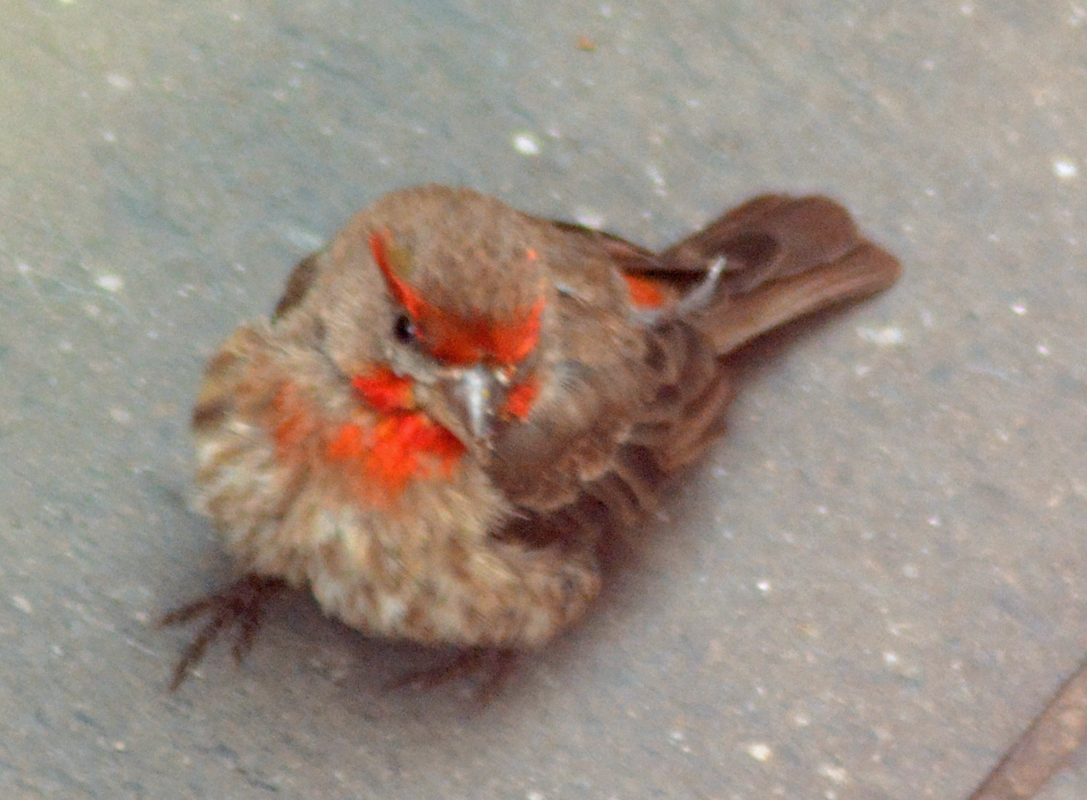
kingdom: Animalia
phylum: Chordata
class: Aves
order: Passeriformes
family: Fringillidae
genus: Haemorhous
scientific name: Haemorhous mexicanus
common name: House finch
